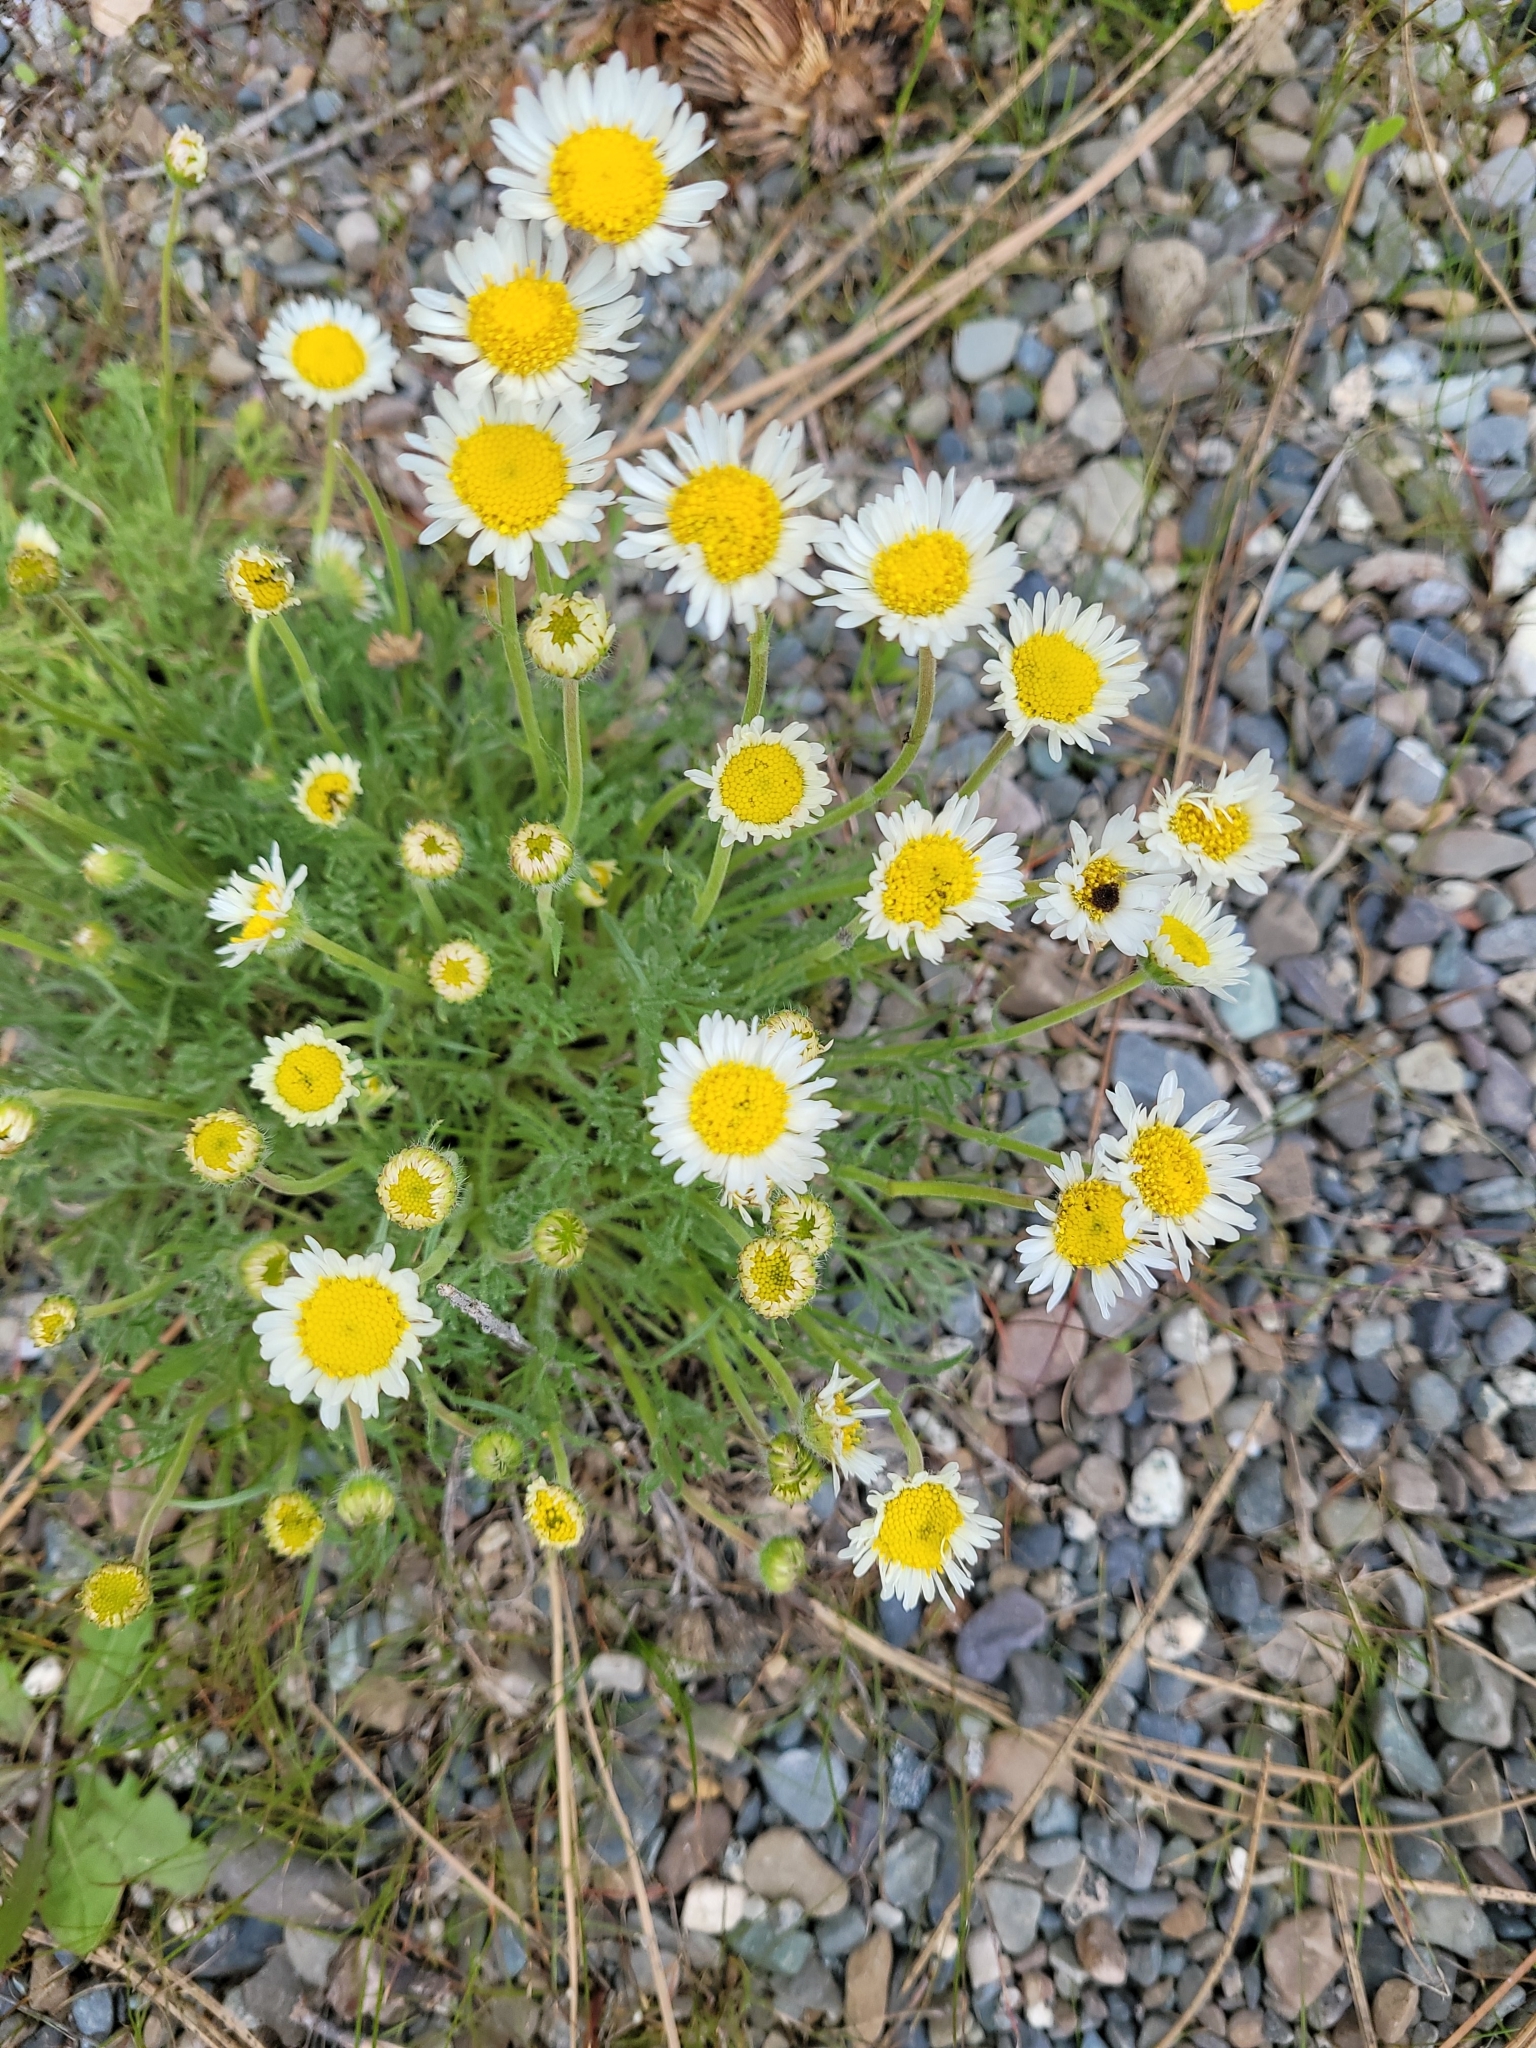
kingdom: Plantae
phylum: Tracheophyta
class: Magnoliopsida
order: Asterales
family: Asteraceae
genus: Erigeron
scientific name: Erigeron compositus
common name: Dwarf mountain fleabane
